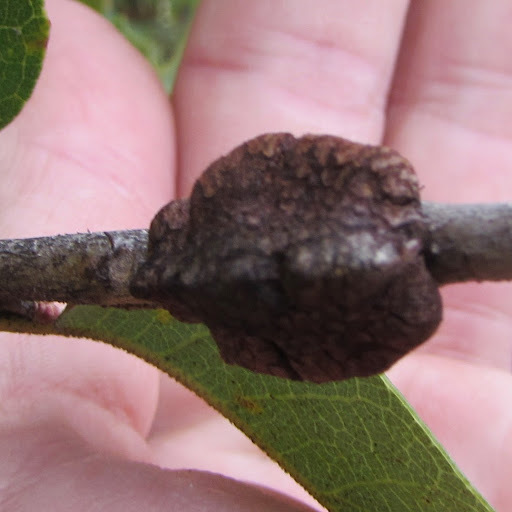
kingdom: Animalia
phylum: Arthropoda
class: Insecta
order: Hymenoptera
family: Cynipidae
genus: Disholandricus
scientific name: Disholandricus
